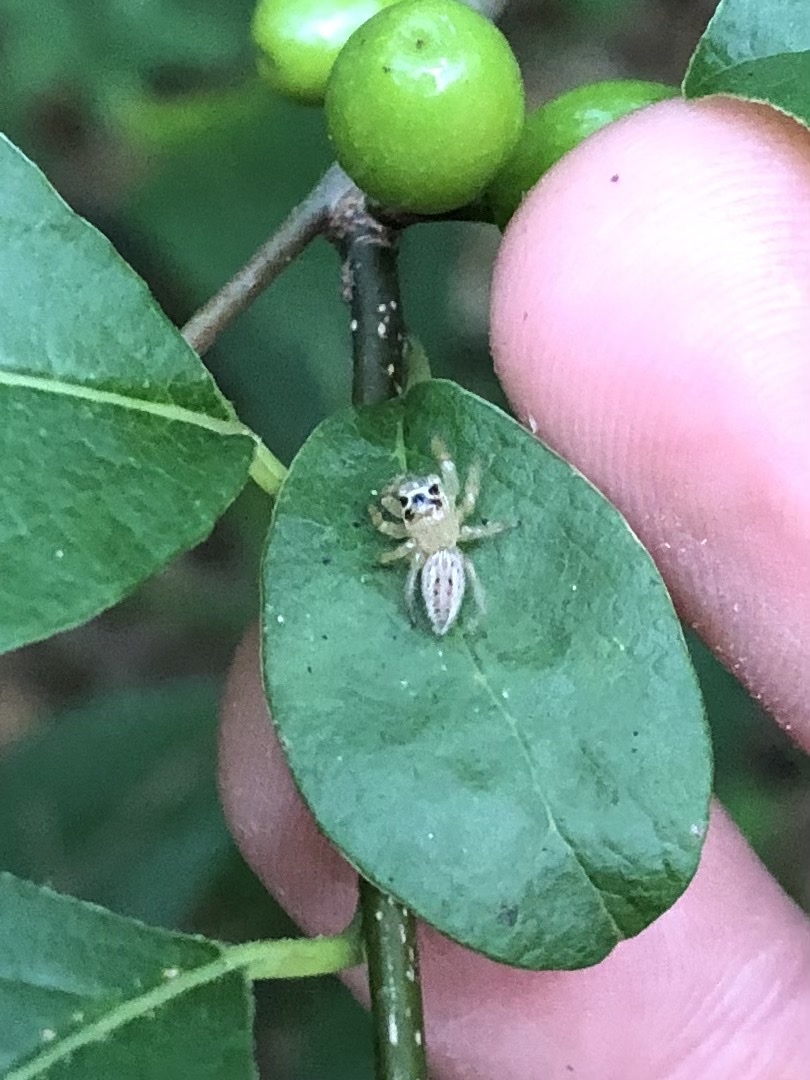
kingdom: Animalia
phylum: Arthropoda
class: Arachnida
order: Araneae
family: Salticidae
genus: Colonus
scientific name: Colonus sylvanus
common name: Jumping spiders
